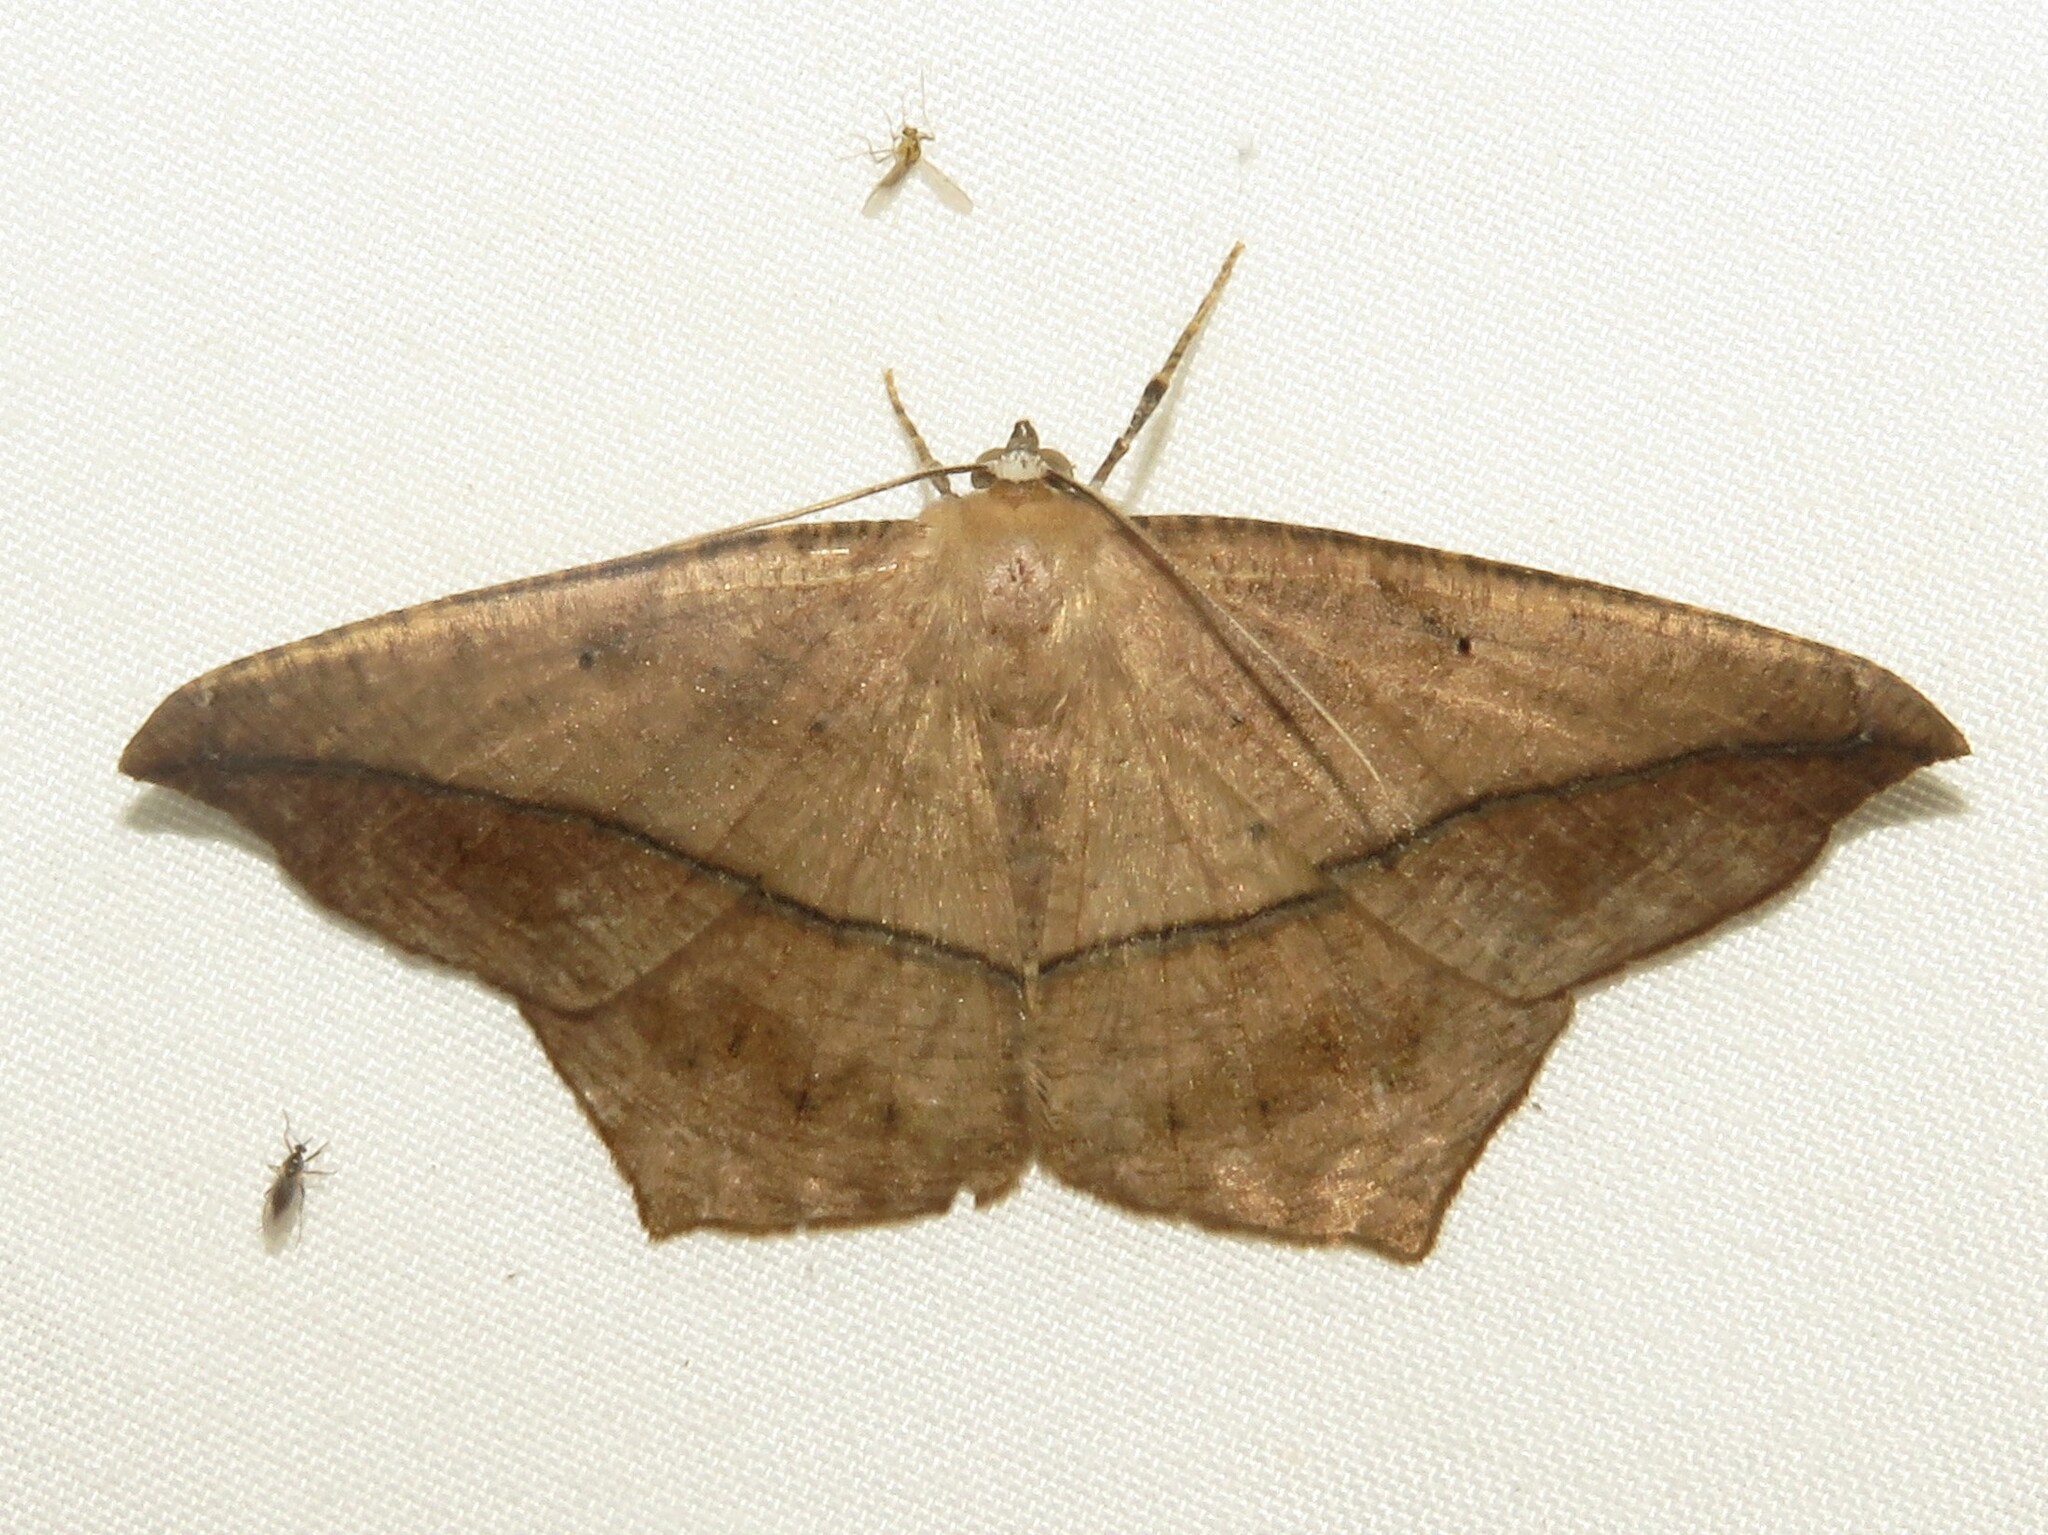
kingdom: Animalia
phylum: Arthropoda
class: Insecta
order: Lepidoptera
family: Geometridae
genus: Prochoerodes
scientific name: Prochoerodes lineola
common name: Large maple spanworm
